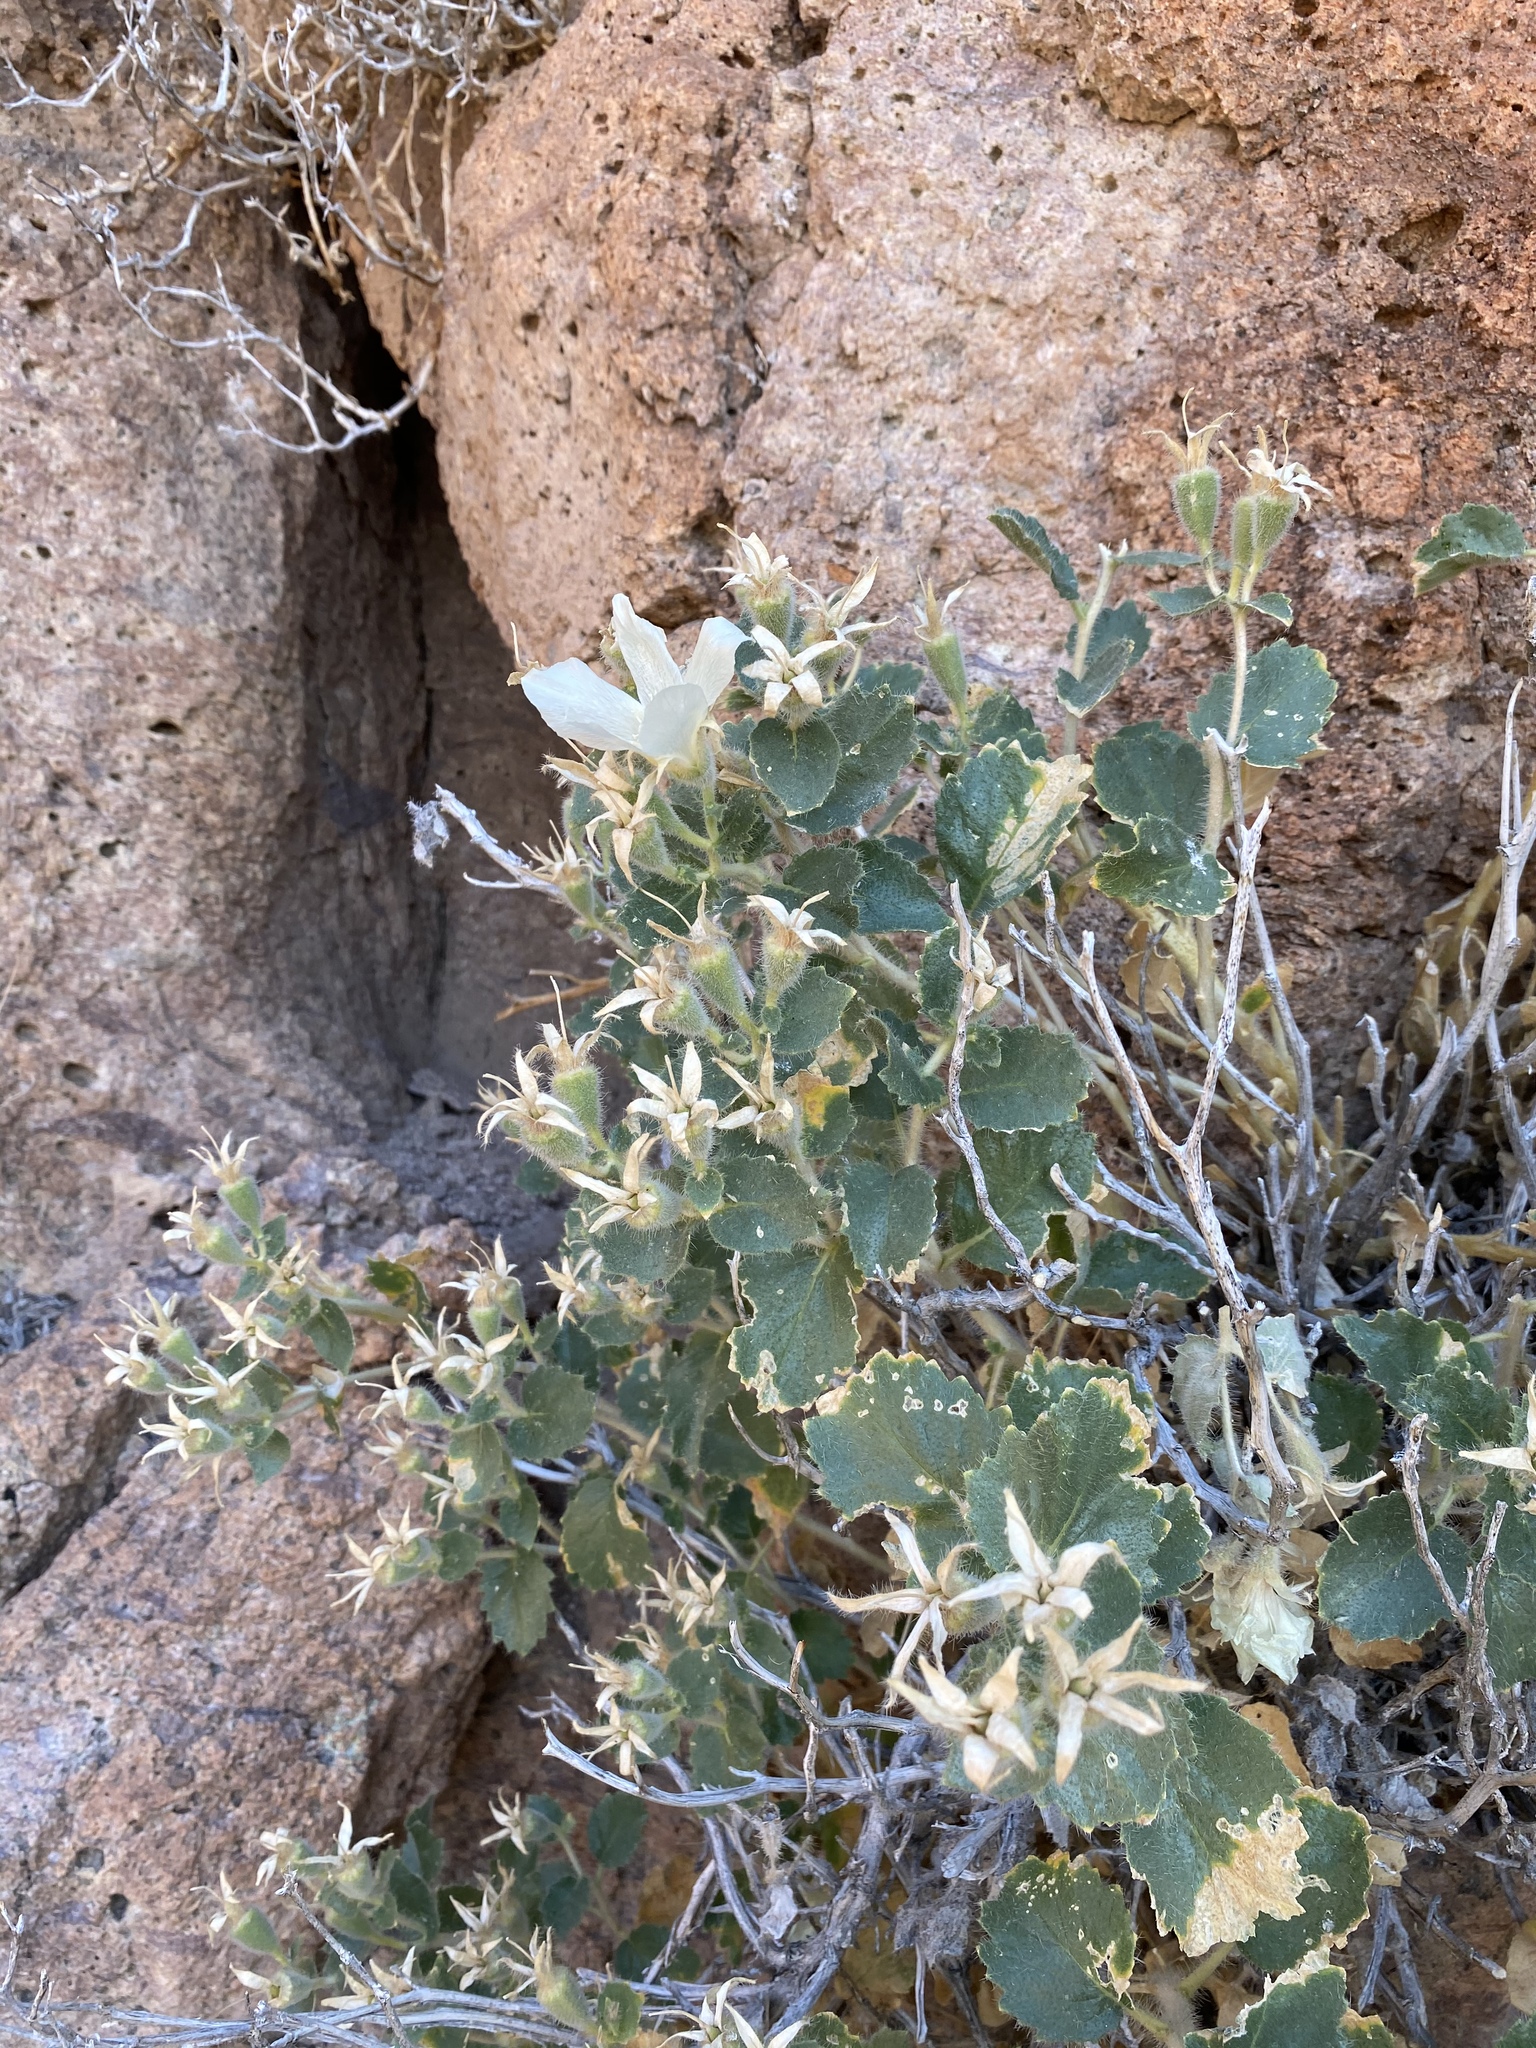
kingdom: Plantae
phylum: Tracheophyta
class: Magnoliopsida
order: Cornales
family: Loasaceae
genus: Eucnide
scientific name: Eucnide urens
